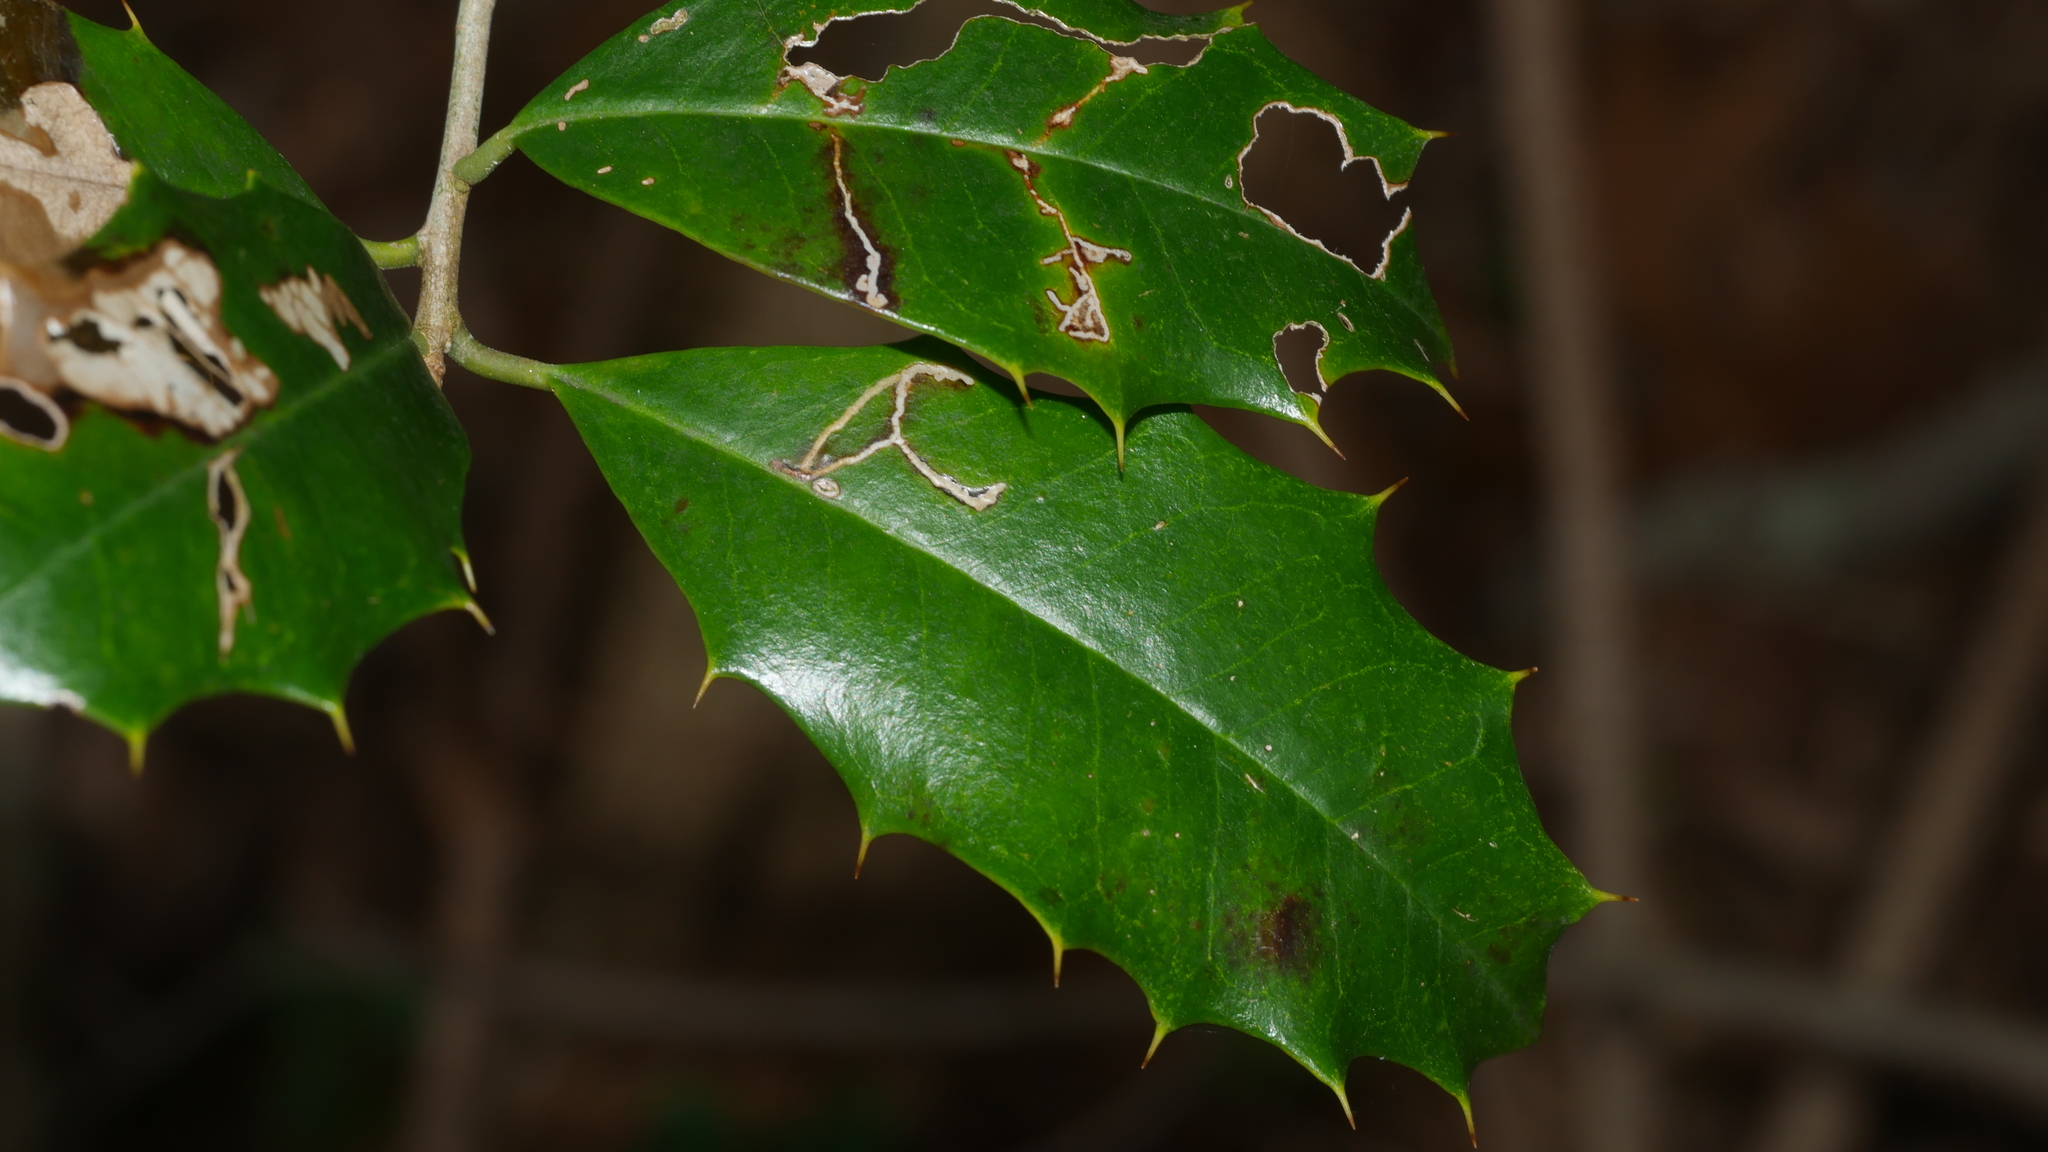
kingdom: Animalia
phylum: Arthropoda
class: Insecta
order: Lepidoptera
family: Tortricidae
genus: Rhopobota
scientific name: Rhopobota
